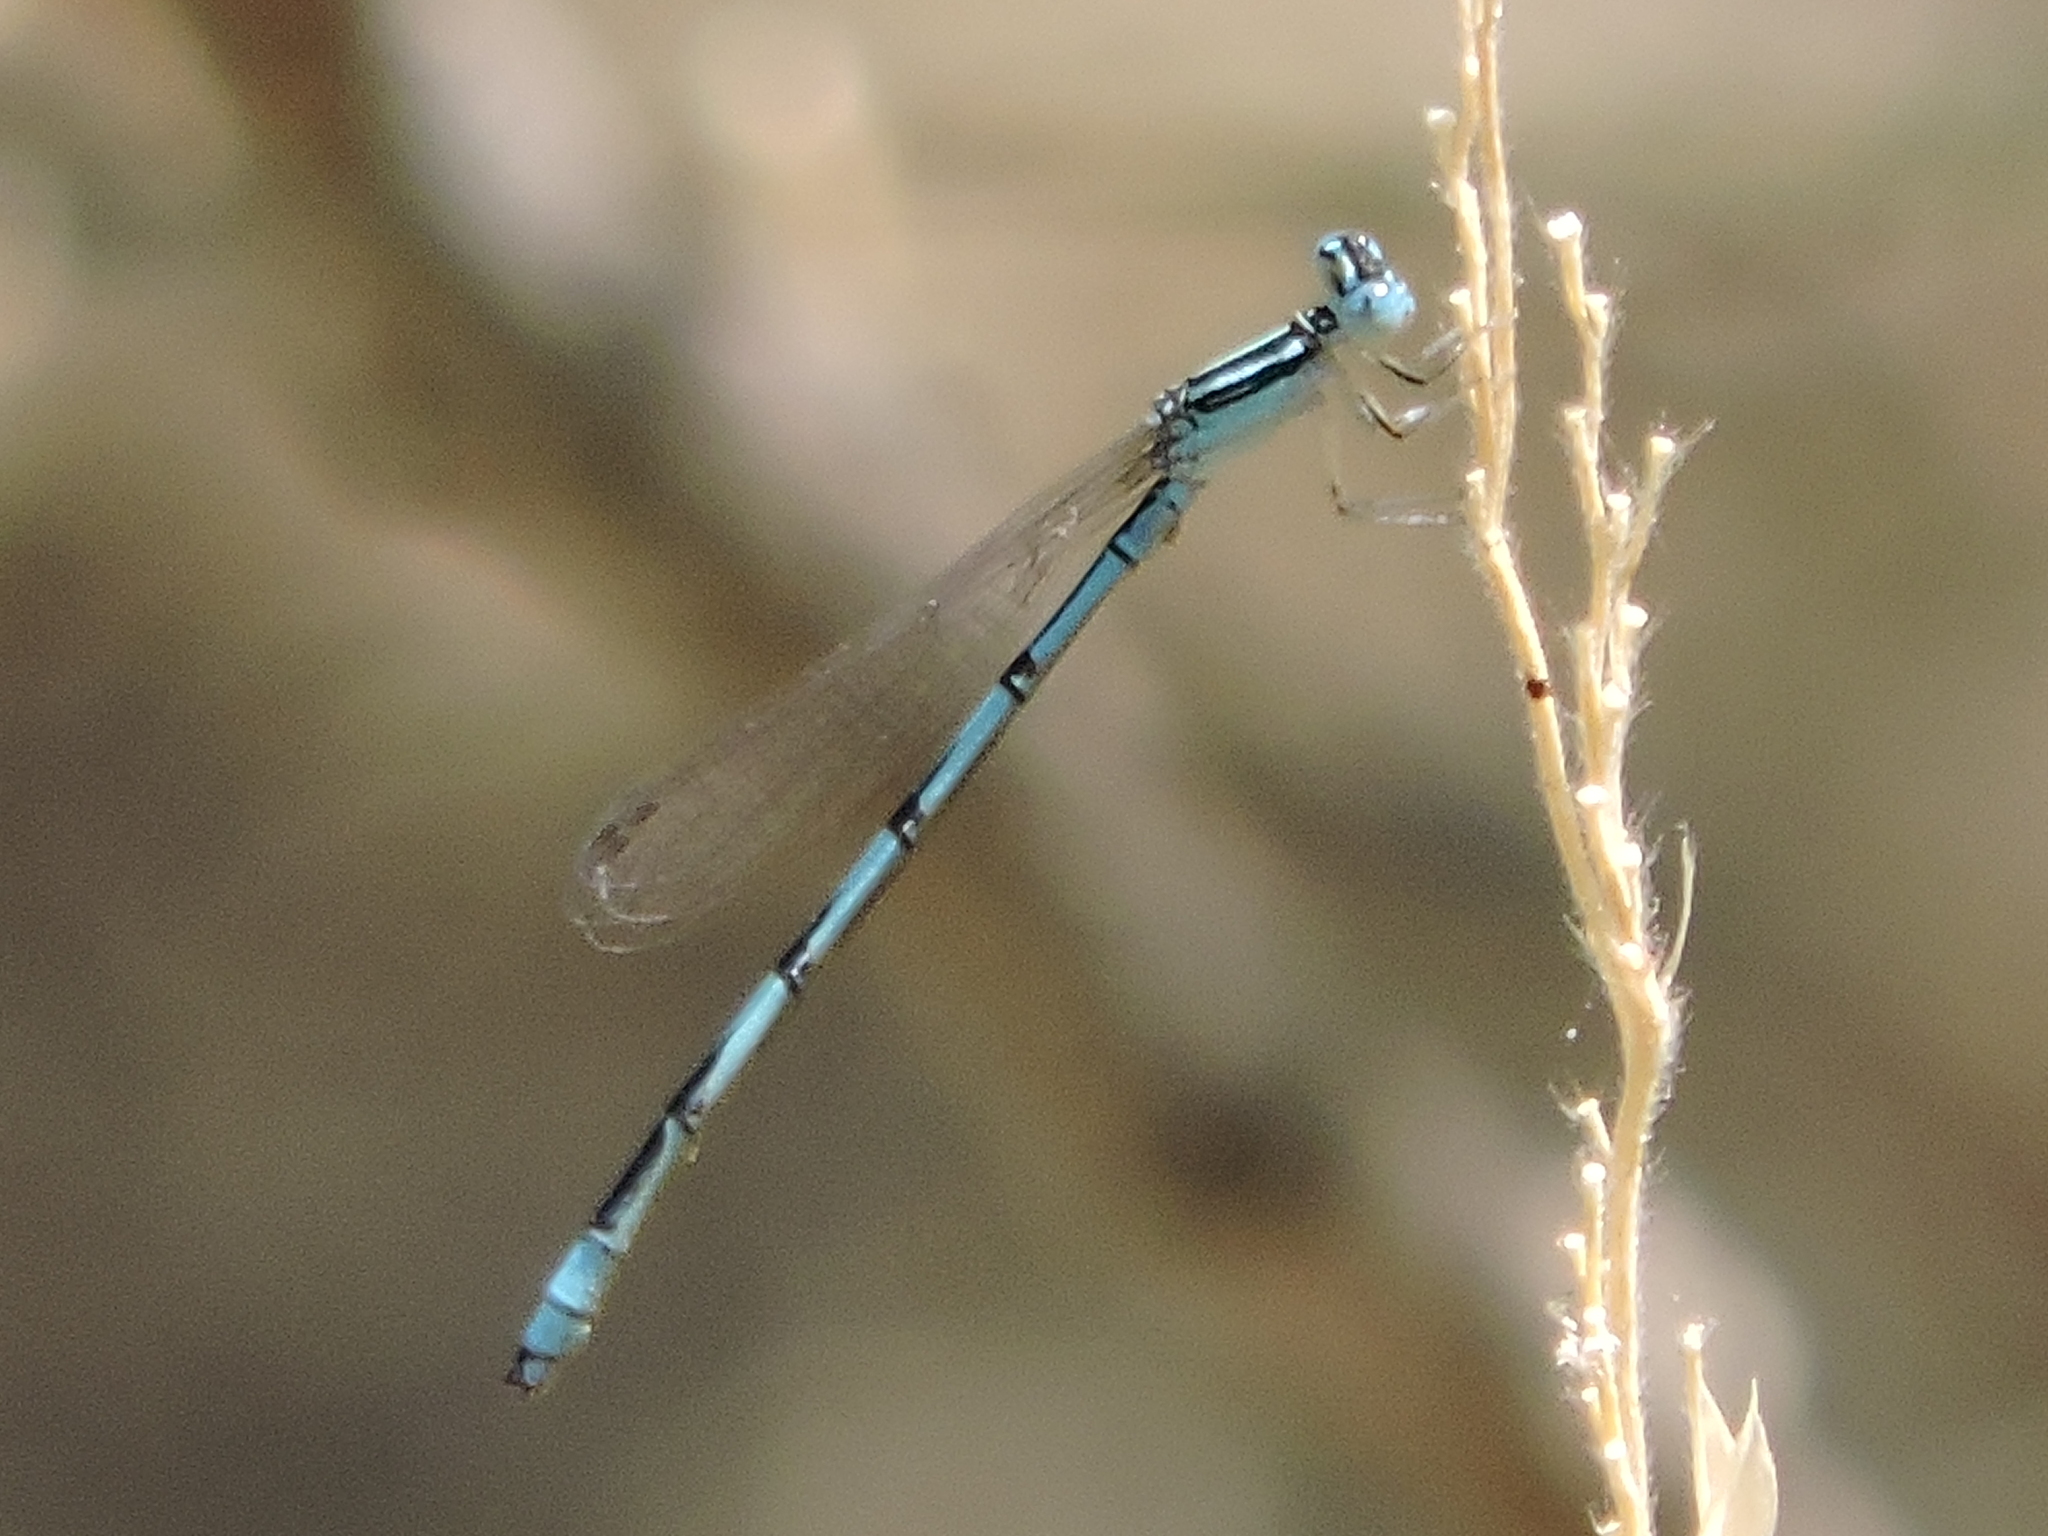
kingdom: Animalia
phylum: Arthropoda
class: Insecta
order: Odonata
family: Coenagrionidae
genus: Enallagma
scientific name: Enallagma basidens
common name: Double-striped bluet
